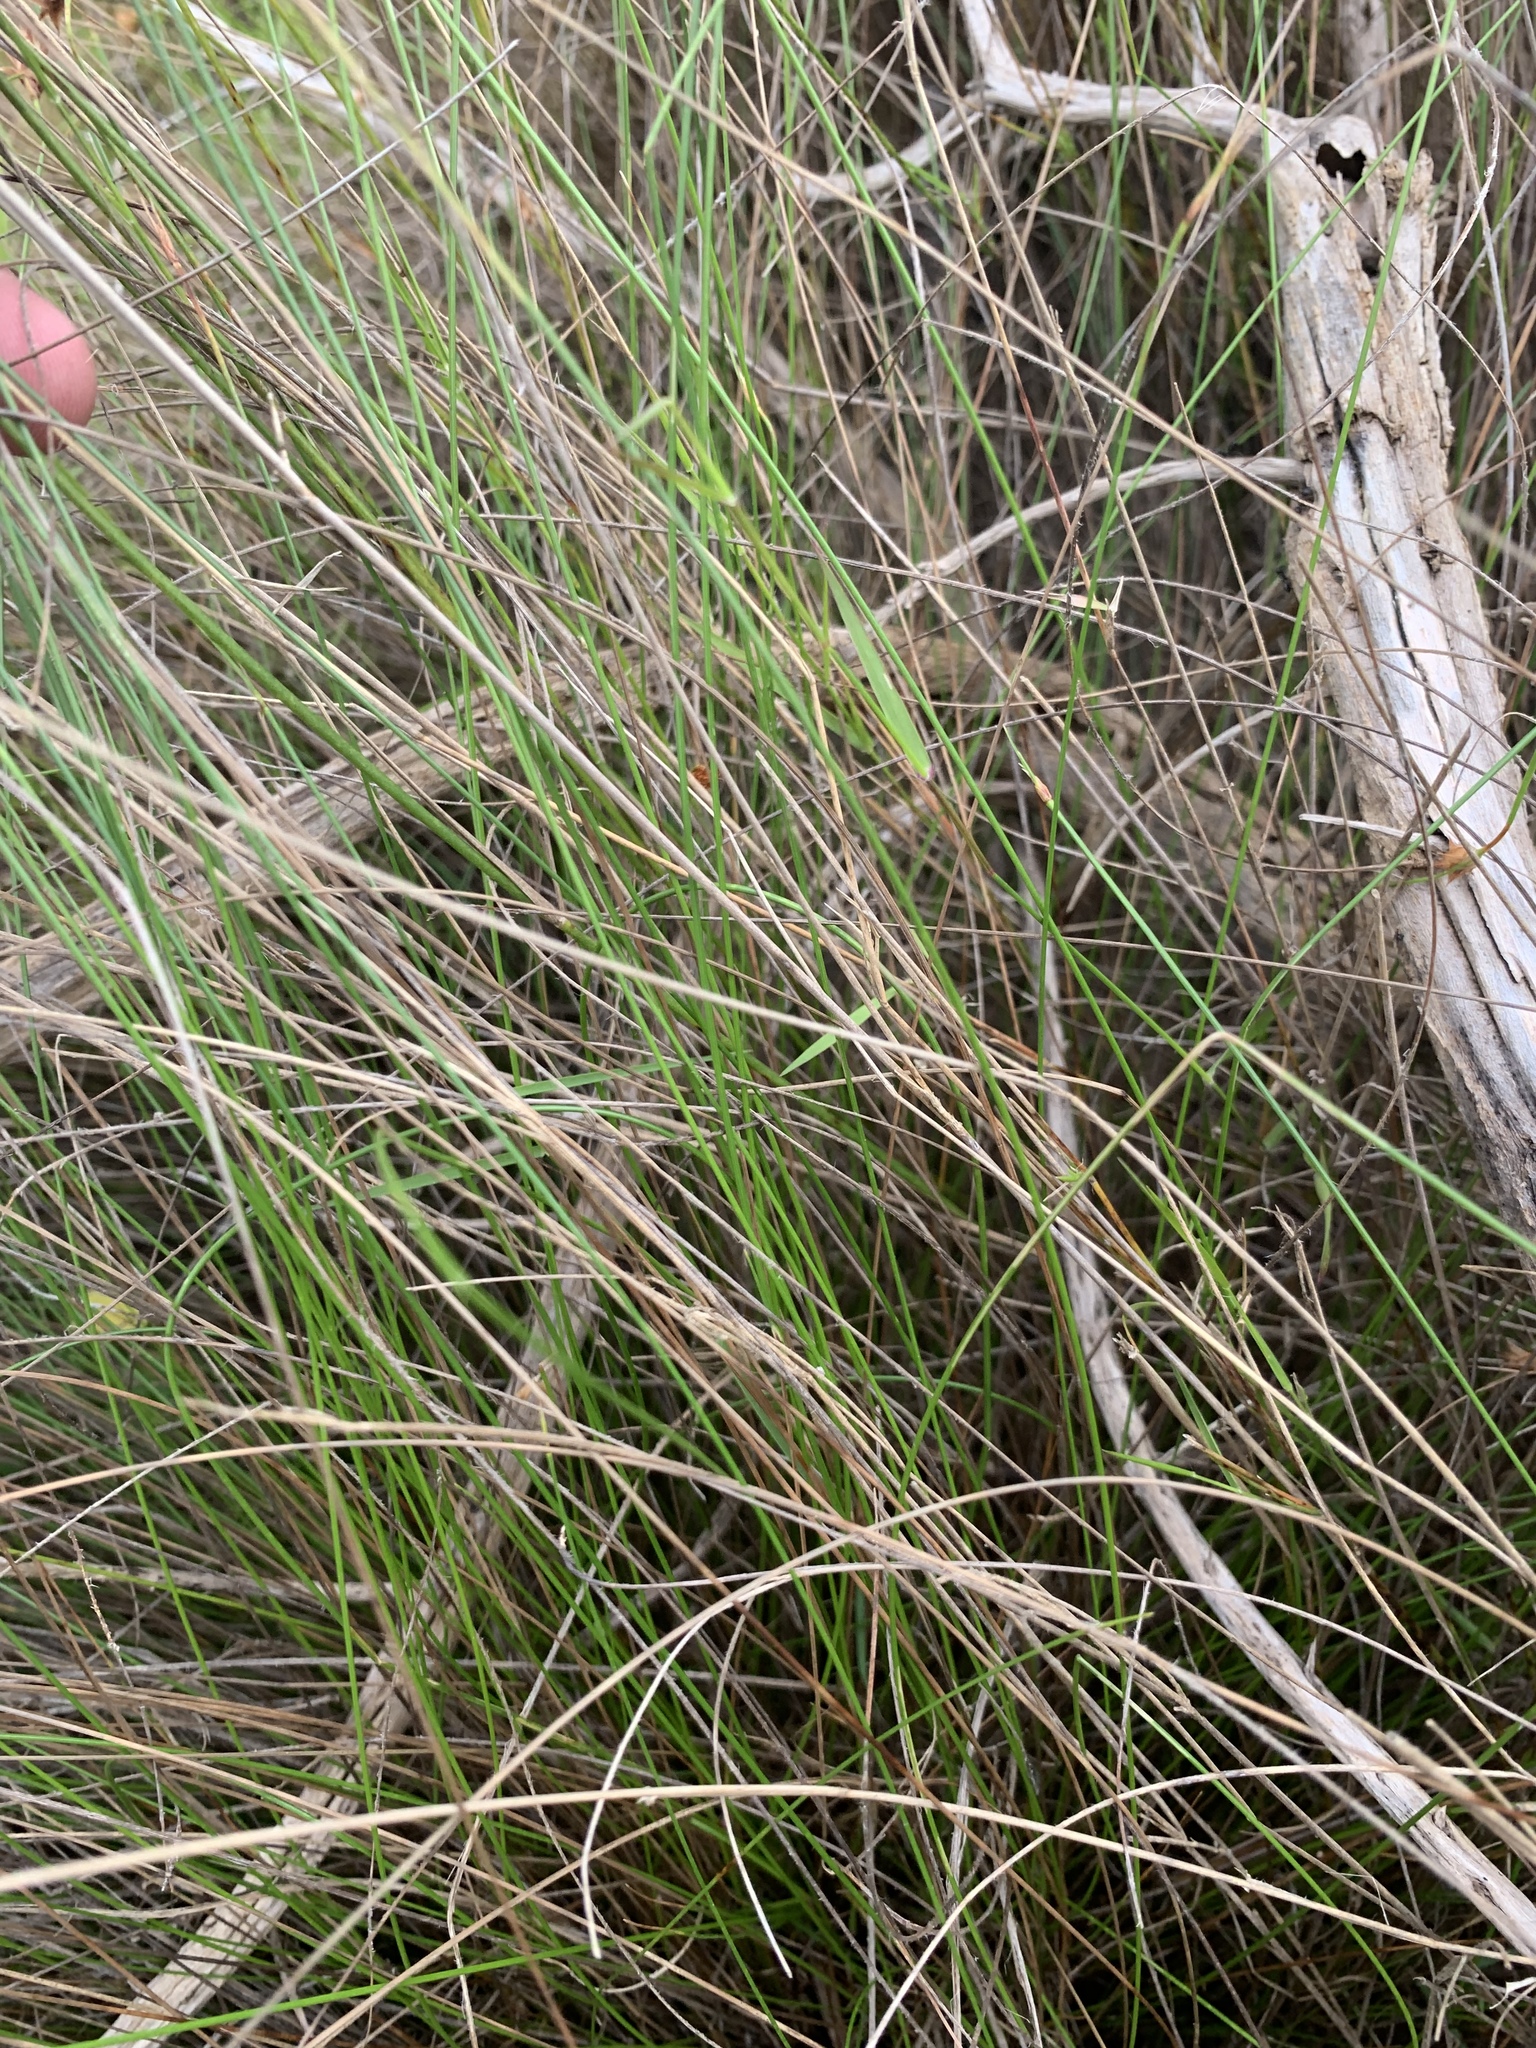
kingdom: Plantae
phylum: Tracheophyta
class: Liliopsida
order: Poales
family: Cyperaceae
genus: Ficinia
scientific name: Ficinia nigrescens
